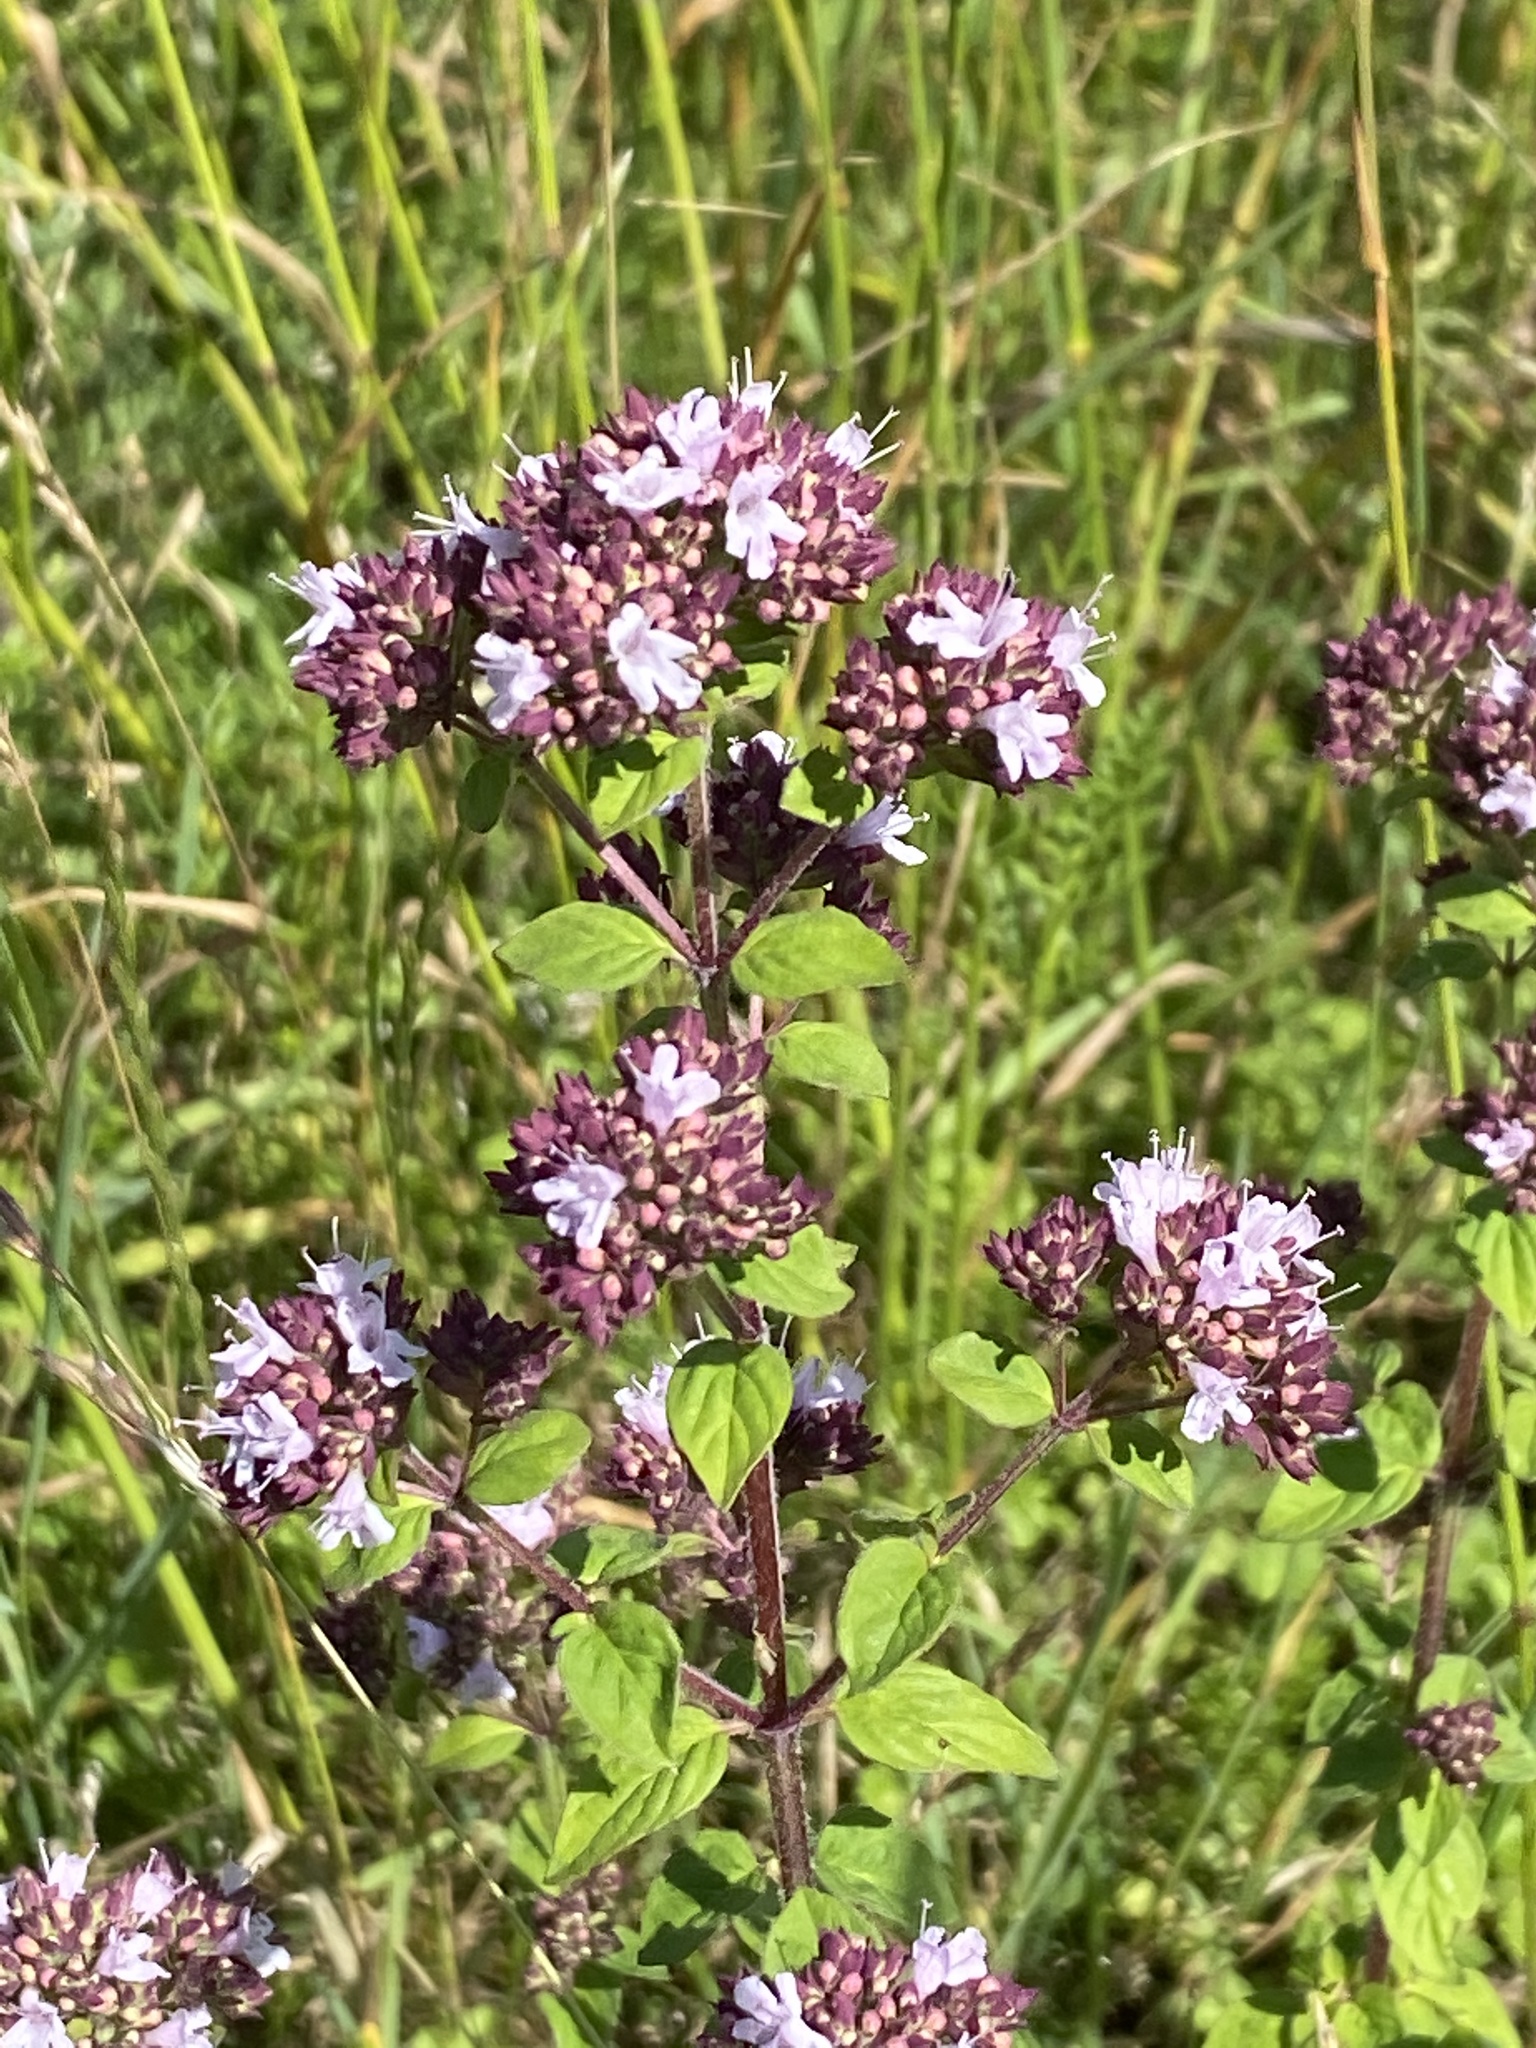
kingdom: Plantae
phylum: Tracheophyta
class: Magnoliopsida
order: Lamiales
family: Lamiaceae
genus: Origanum
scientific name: Origanum vulgare
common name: Wild marjoram
